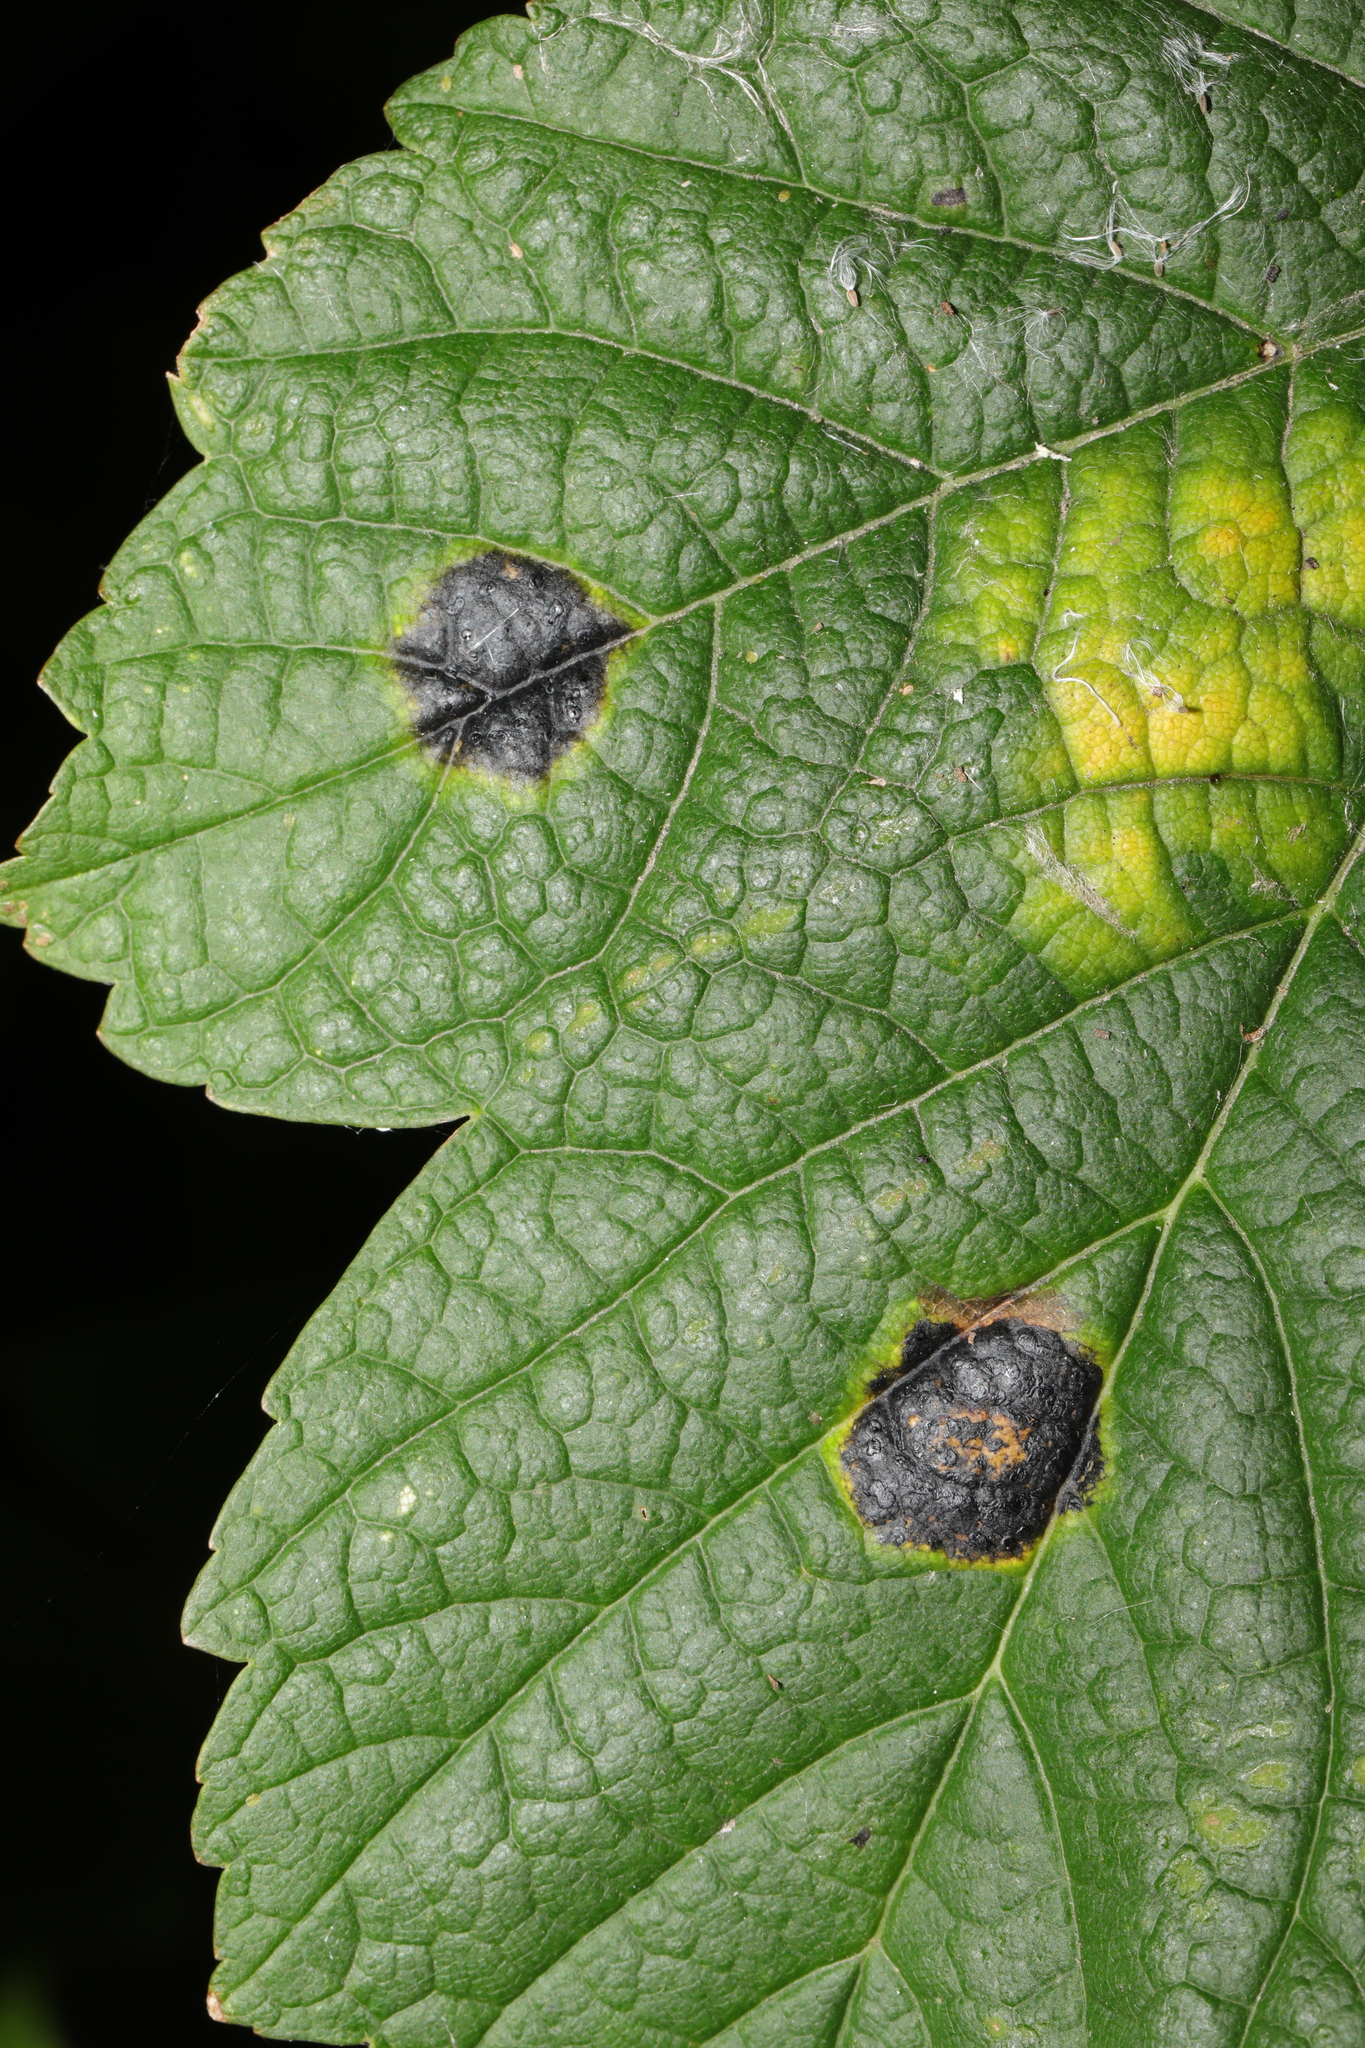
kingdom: Fungi
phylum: Ascomycota
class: Leotiomycetes
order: Rhytismatales
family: Rhytismataceae
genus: Rhytisma
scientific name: Rhytisma acerinum
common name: European tar spot
